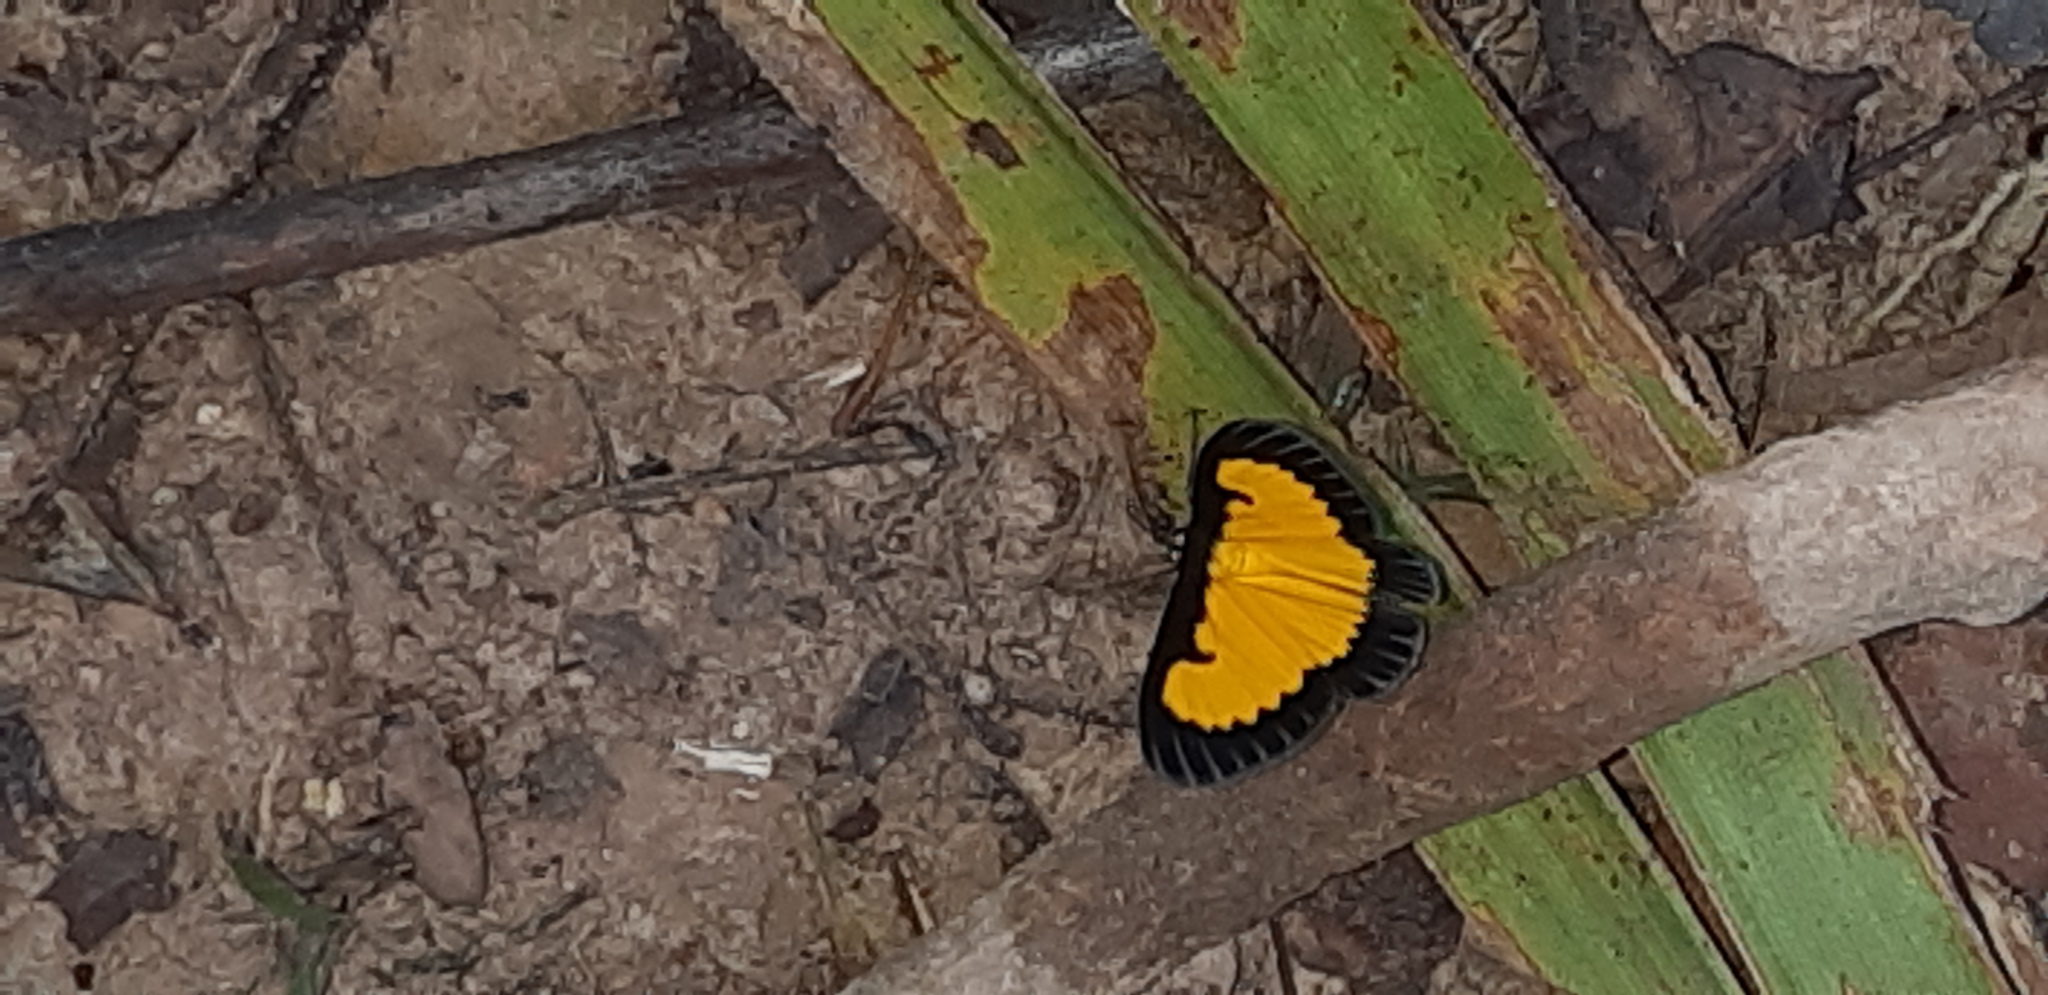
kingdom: Animalia
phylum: Arthropoda
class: Insecta
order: Lepidoptera
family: Geometridae
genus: Xanthyris
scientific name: Xanthyris flaveolata
